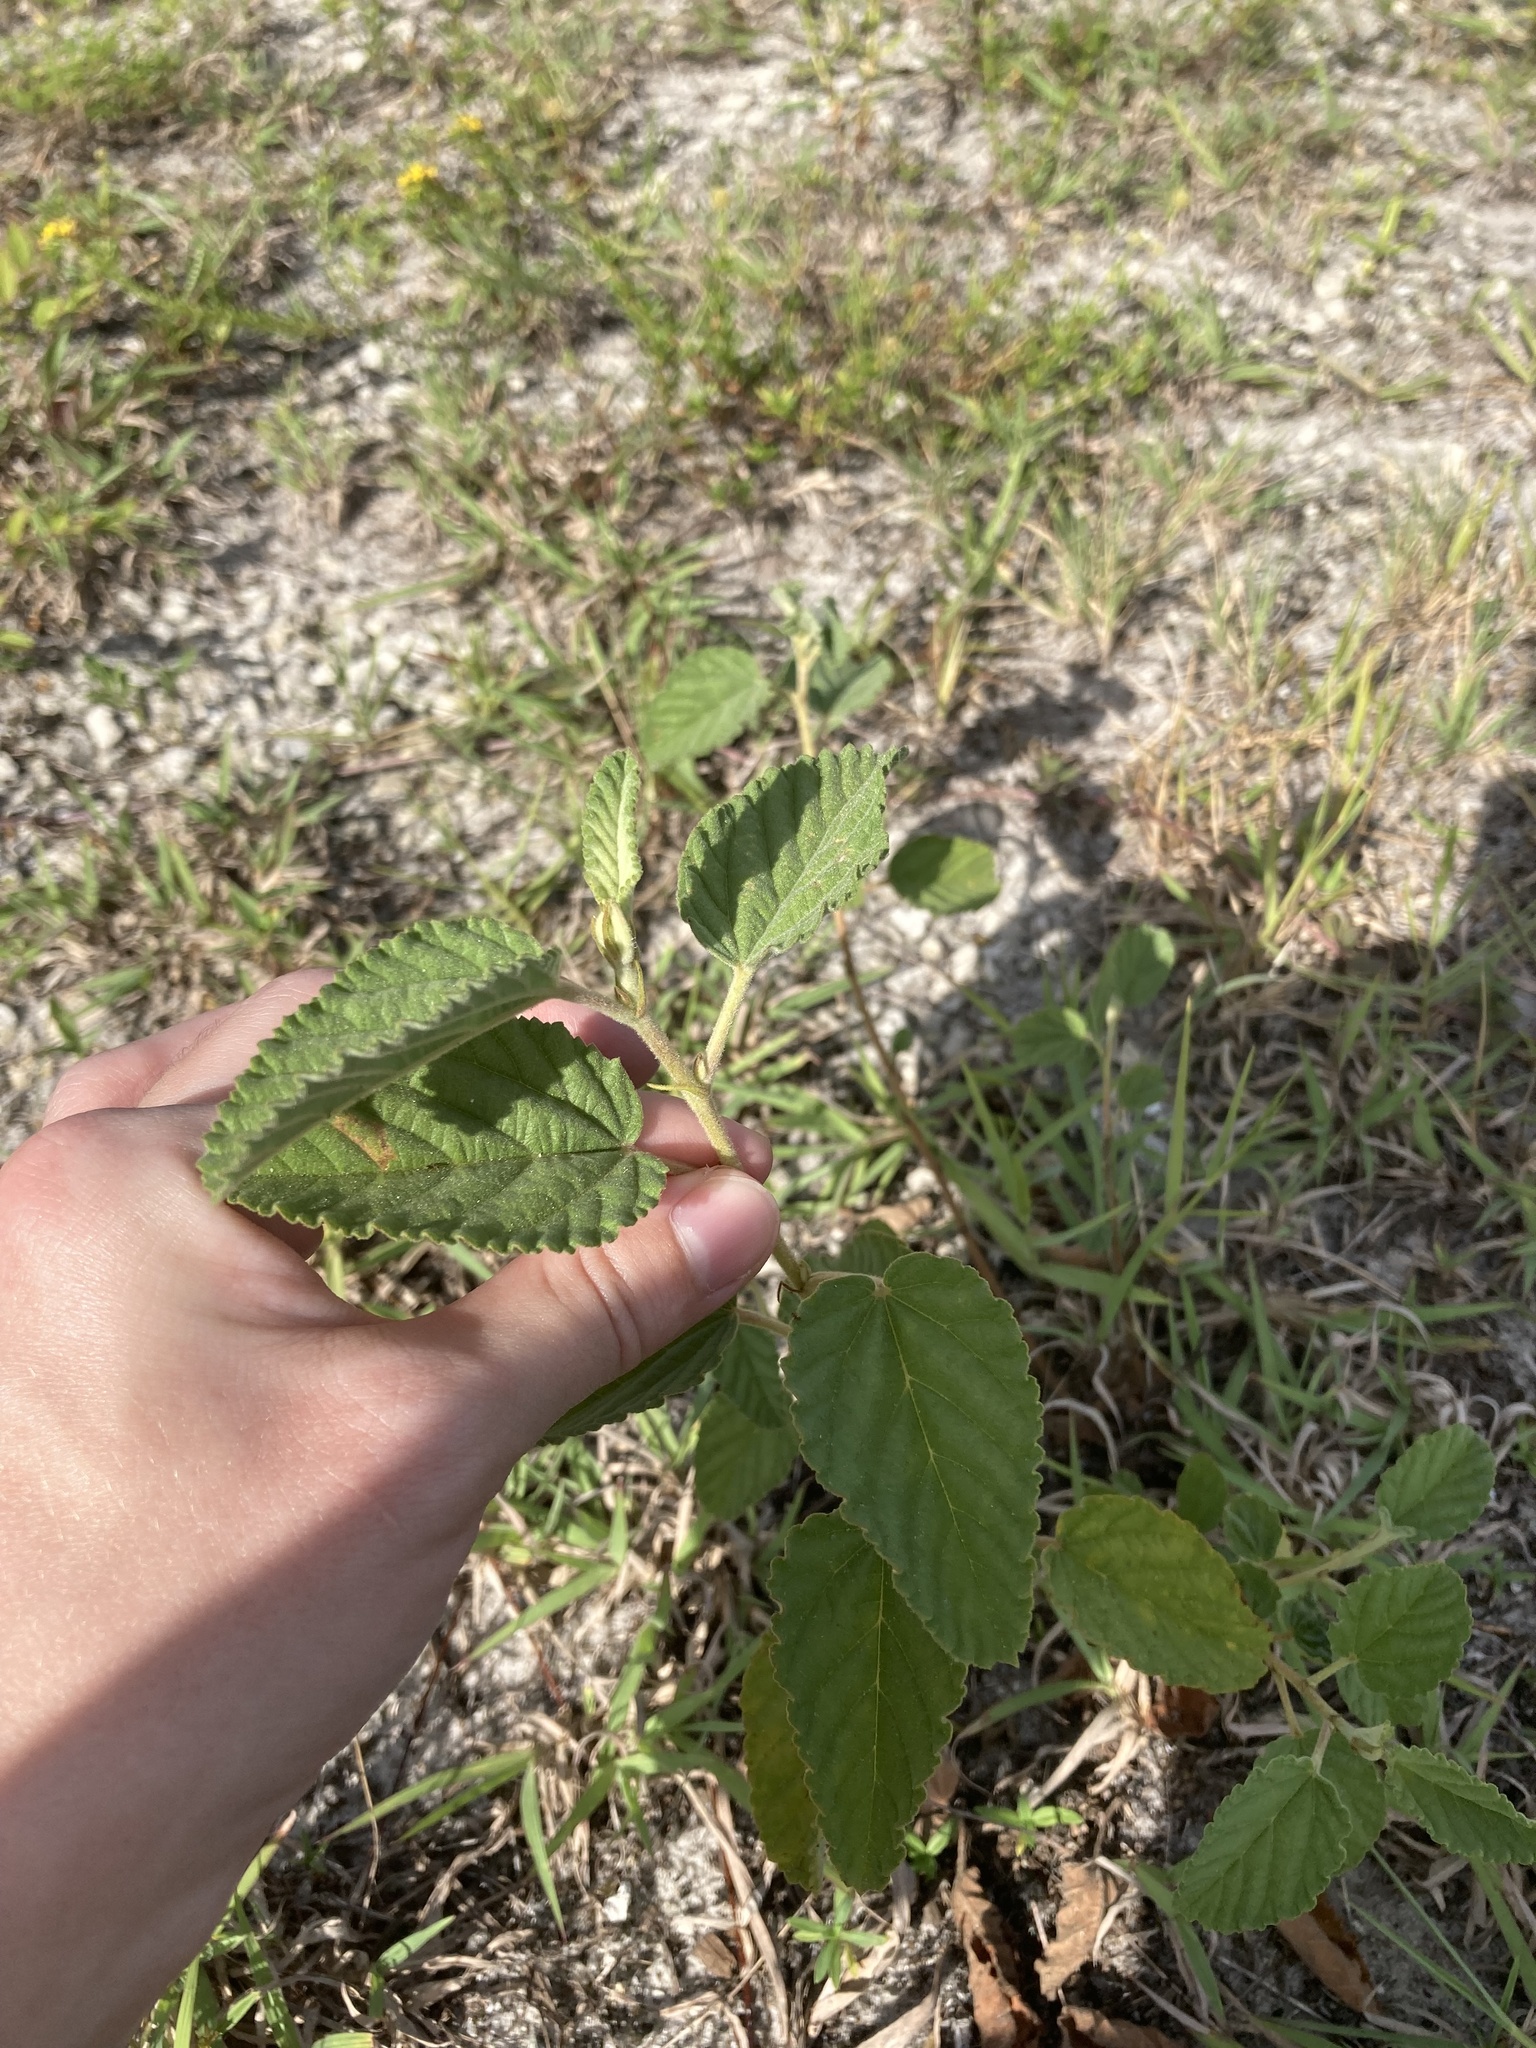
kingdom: Plantae
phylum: Tracheophyta
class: Magnoliopsida
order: Malvales
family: Malvaceae
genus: Waltheria
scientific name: Waltheria indica
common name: Leather-coat
